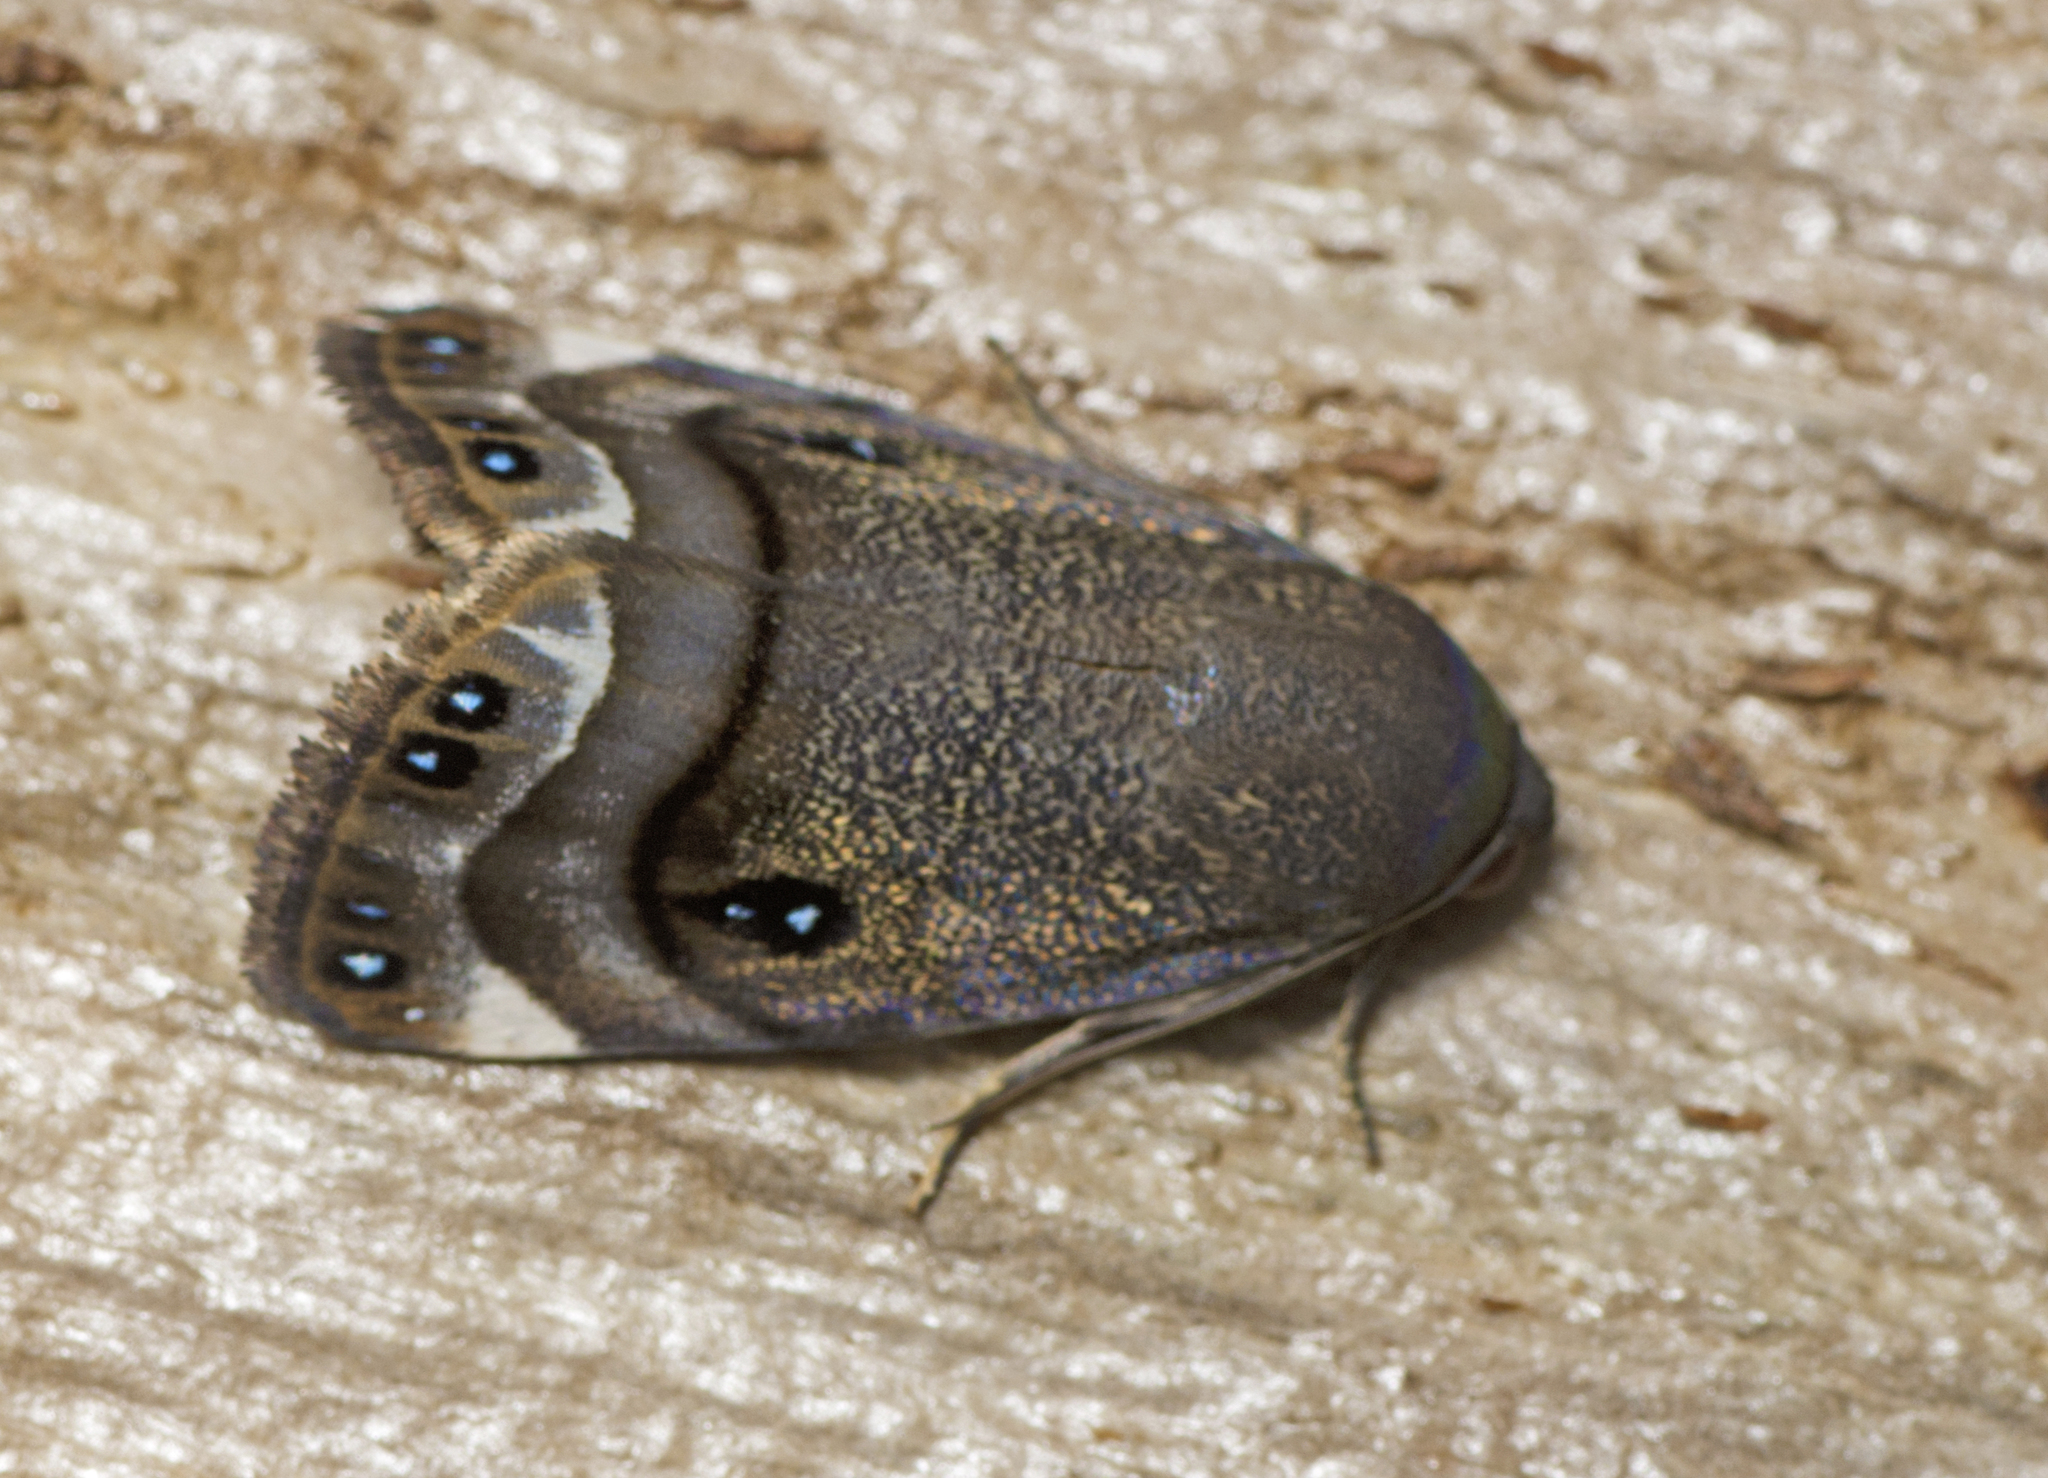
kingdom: Animalia
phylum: Arthropoda
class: Insecta
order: Lepidoptera
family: Nolidae
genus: Armactica
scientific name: Armactica columbina
